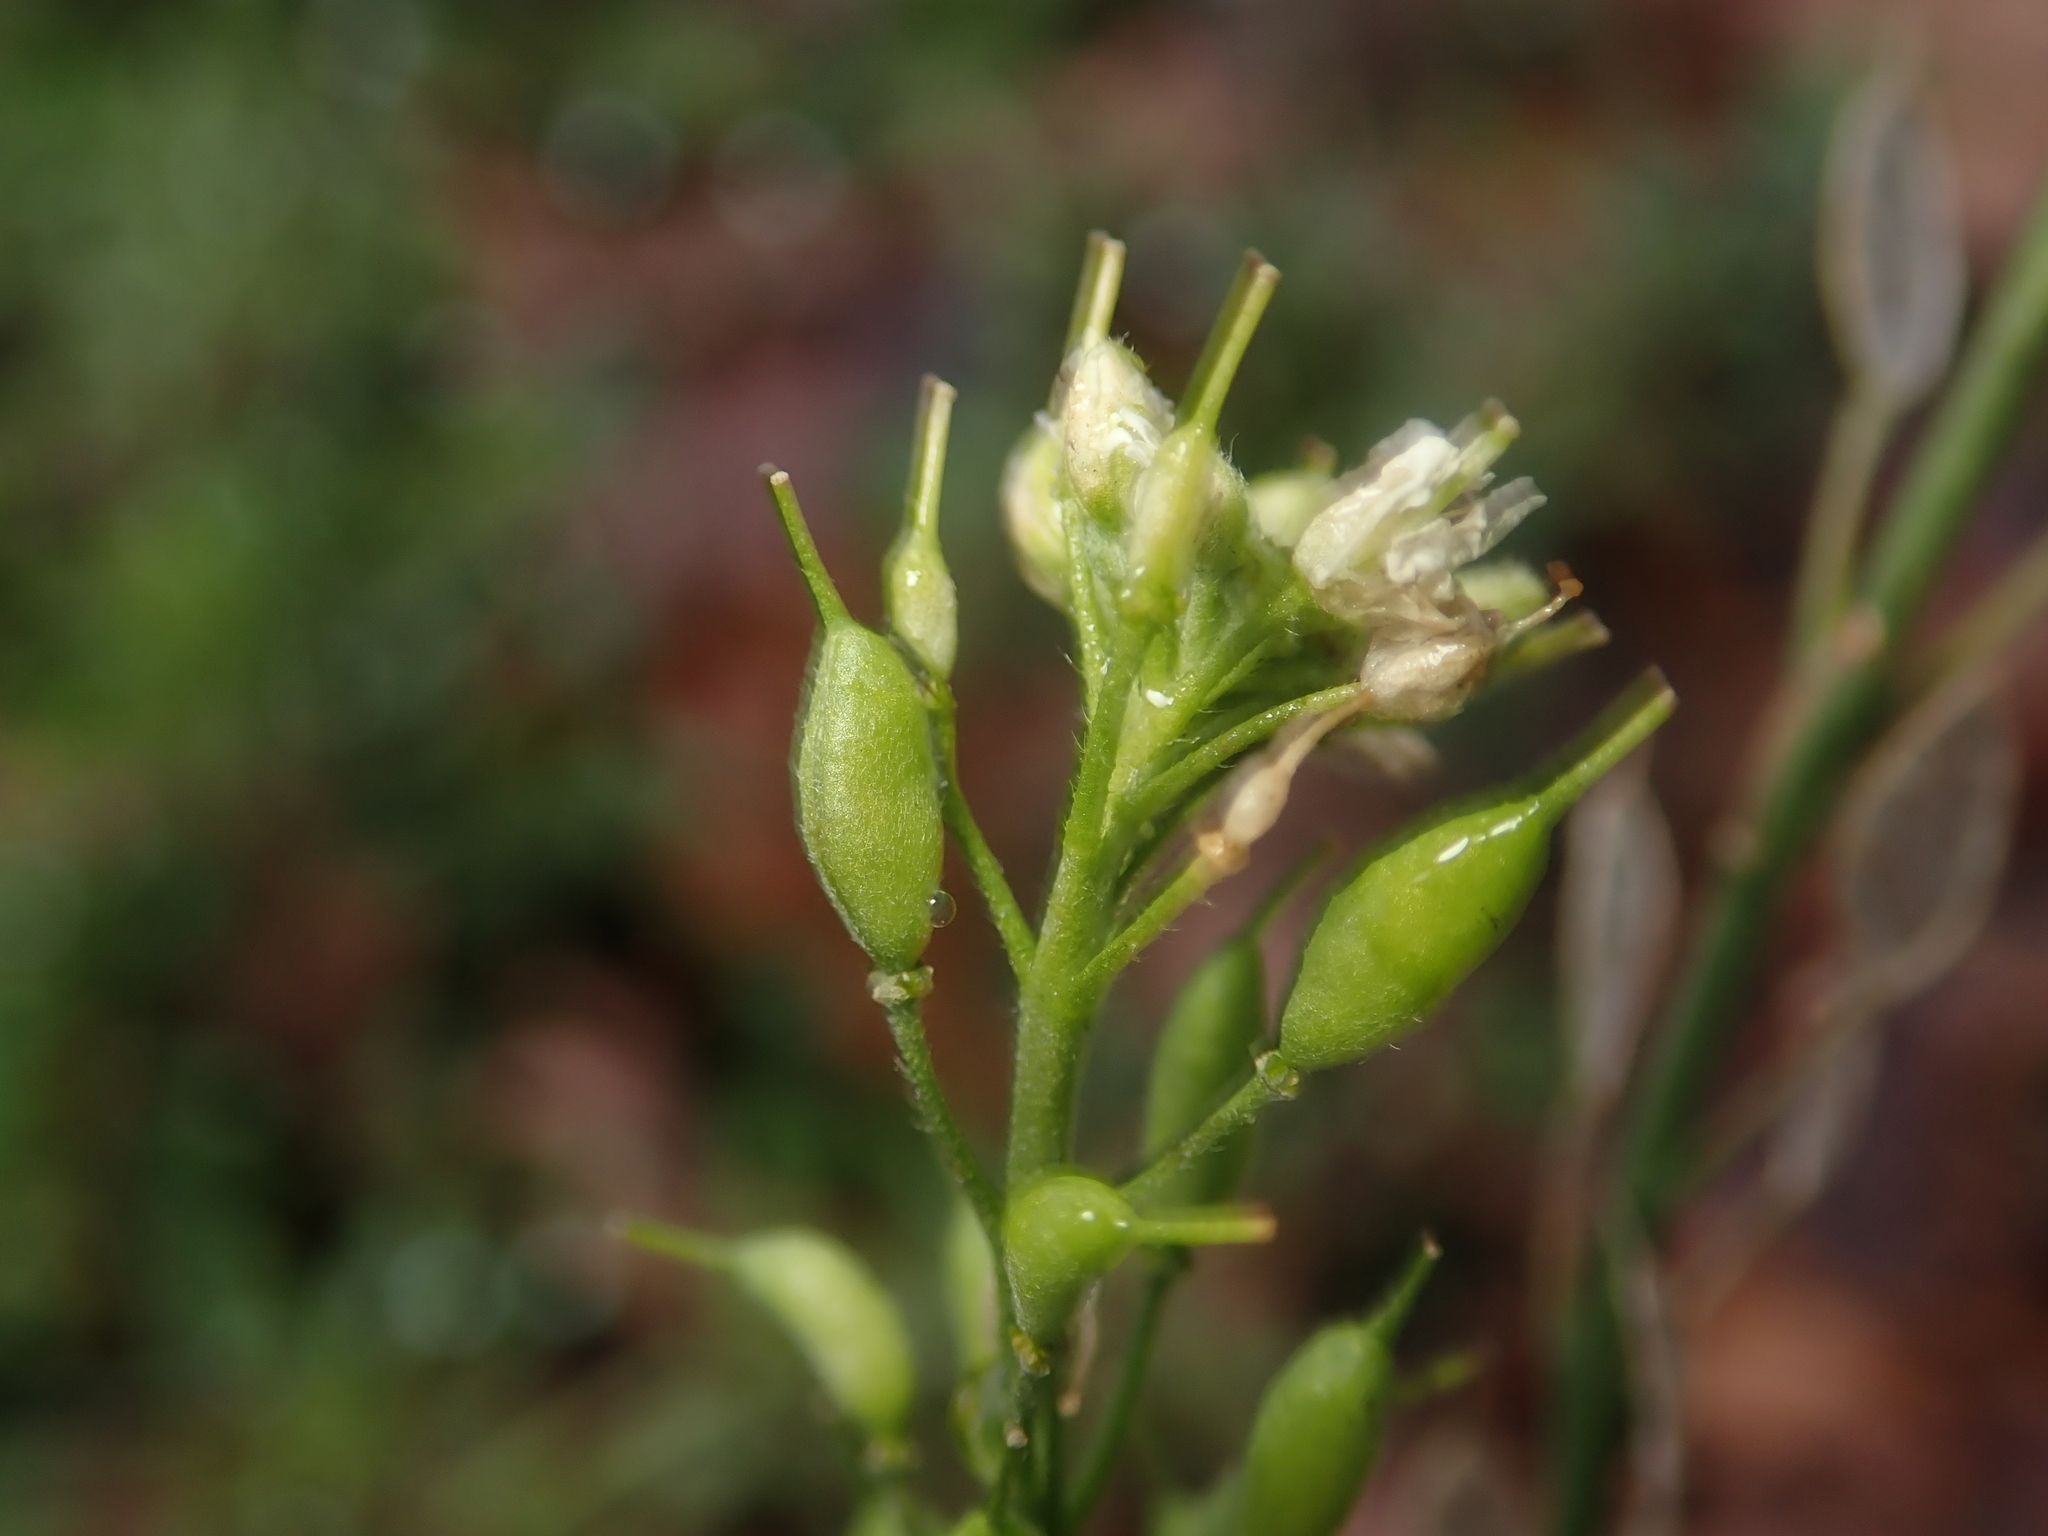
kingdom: Plantae
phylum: Tracheophyta
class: Magnoliopsida
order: Brassicales
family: Brassicaceae
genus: Berteroa
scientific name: Berteroa incana
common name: Hoary alison
